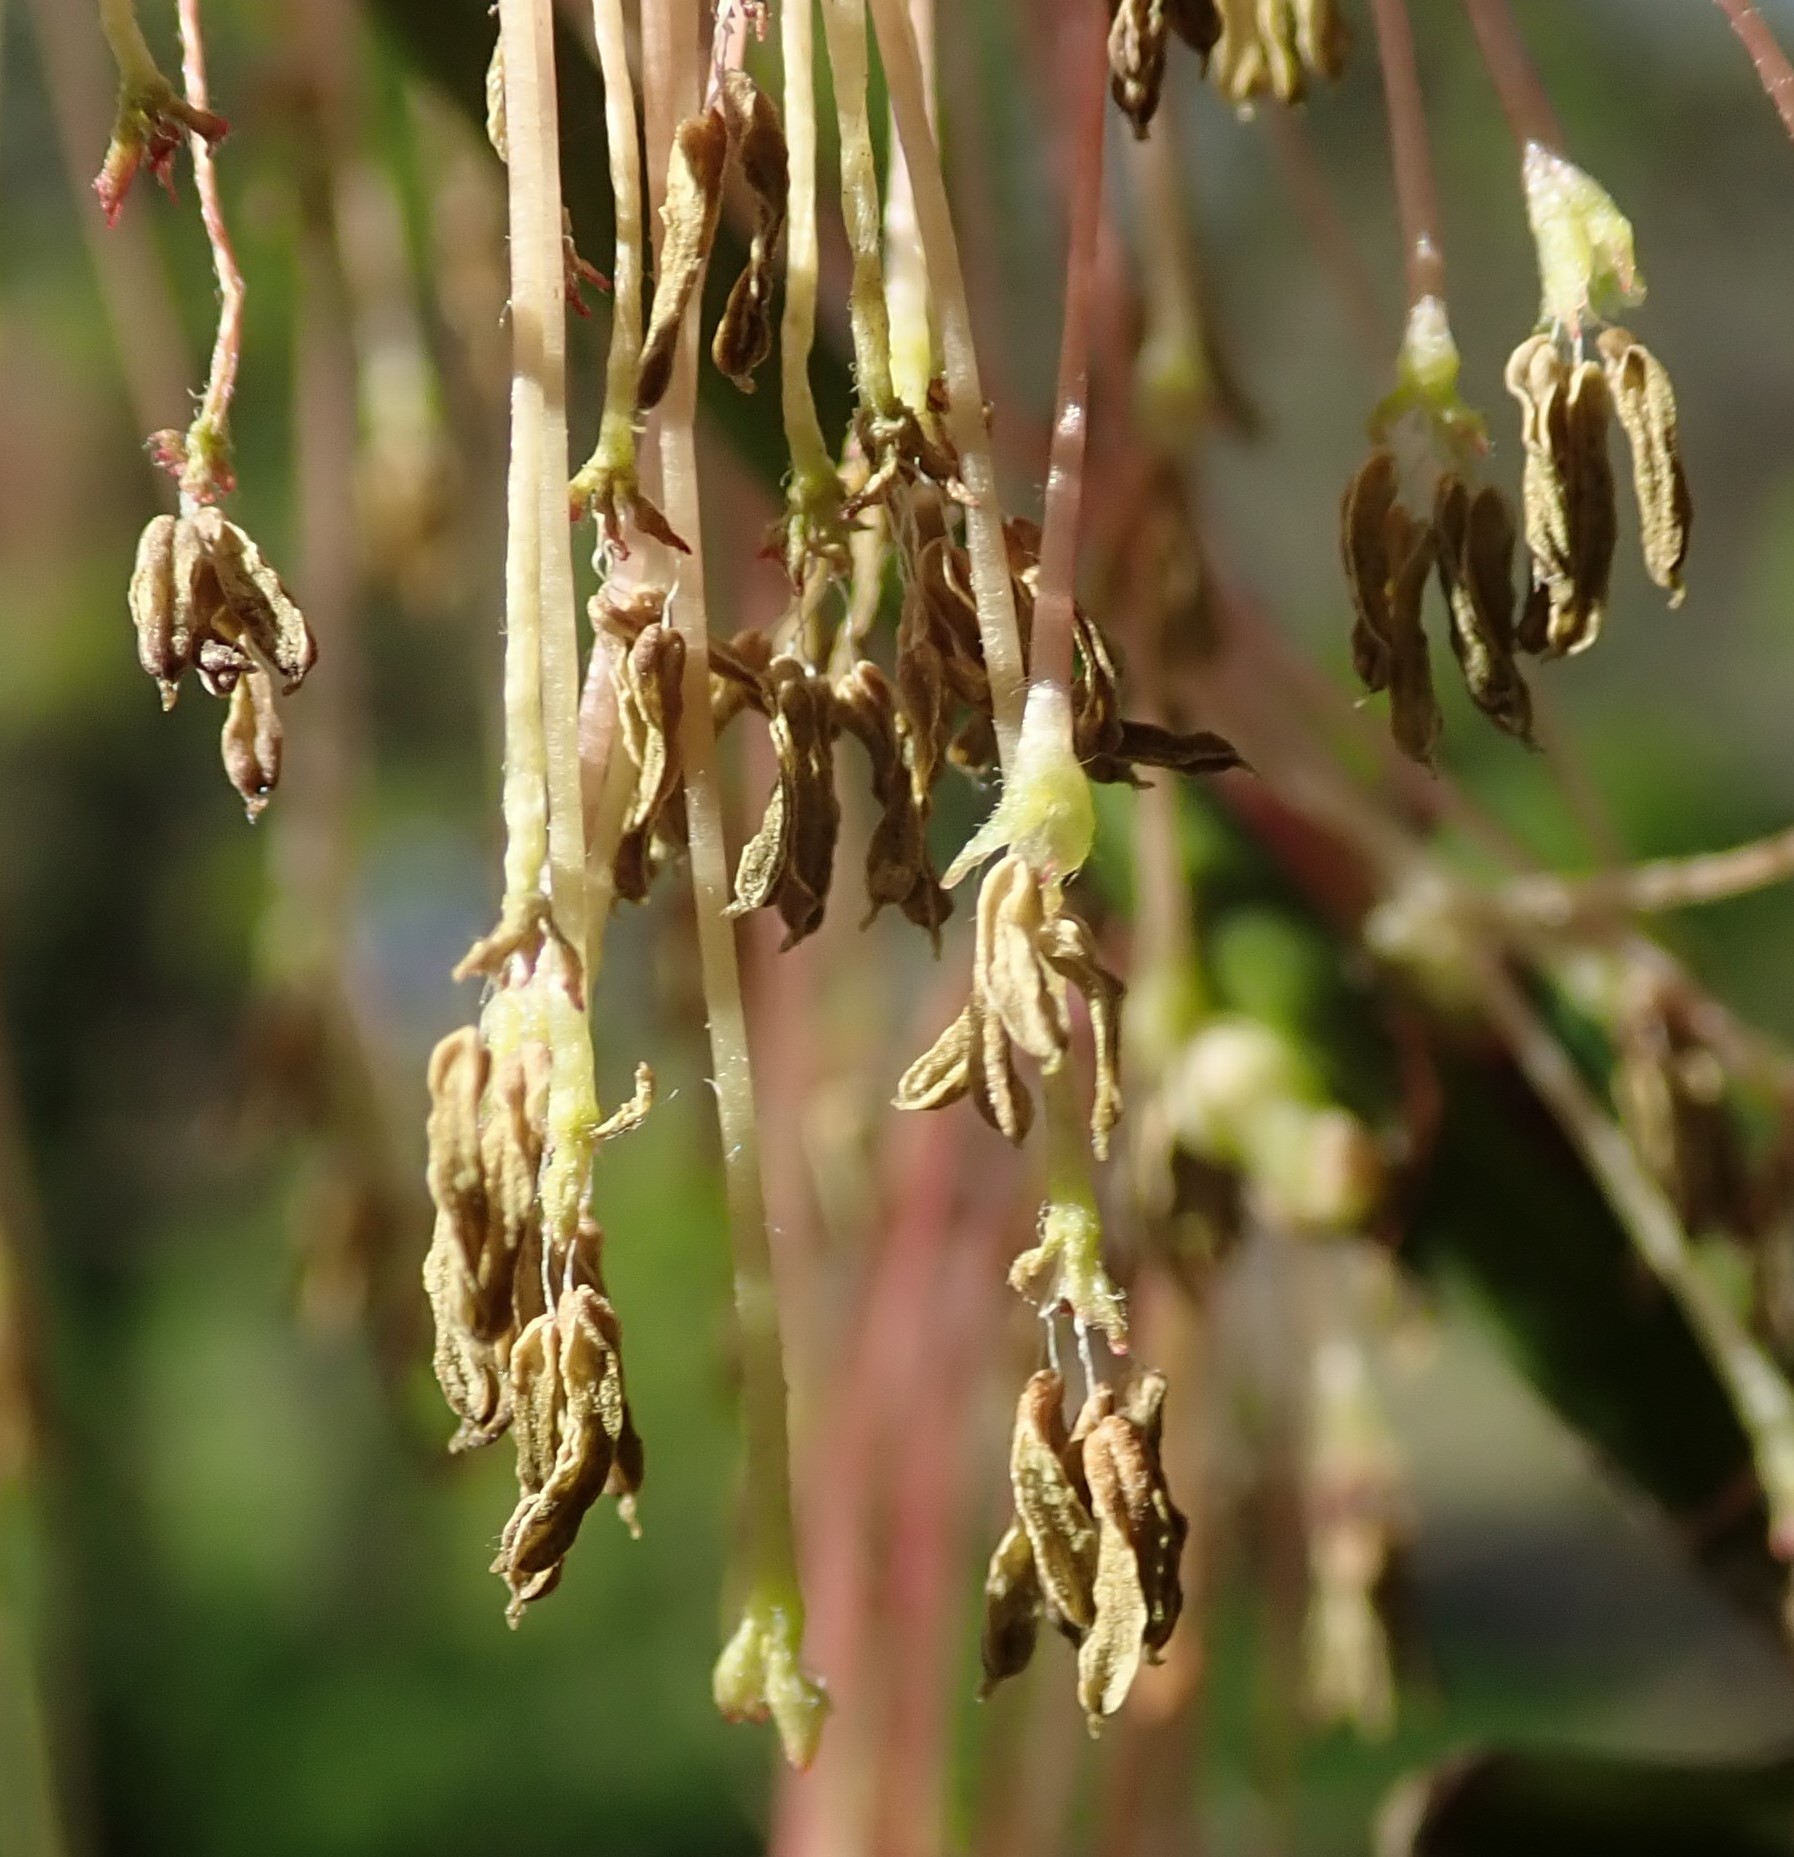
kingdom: Plantae
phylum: Tracheophyta
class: Magnoliopsida
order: Sapindales
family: Sapindaceae
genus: Acer
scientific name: Acer negundo
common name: Ashleaf maple
